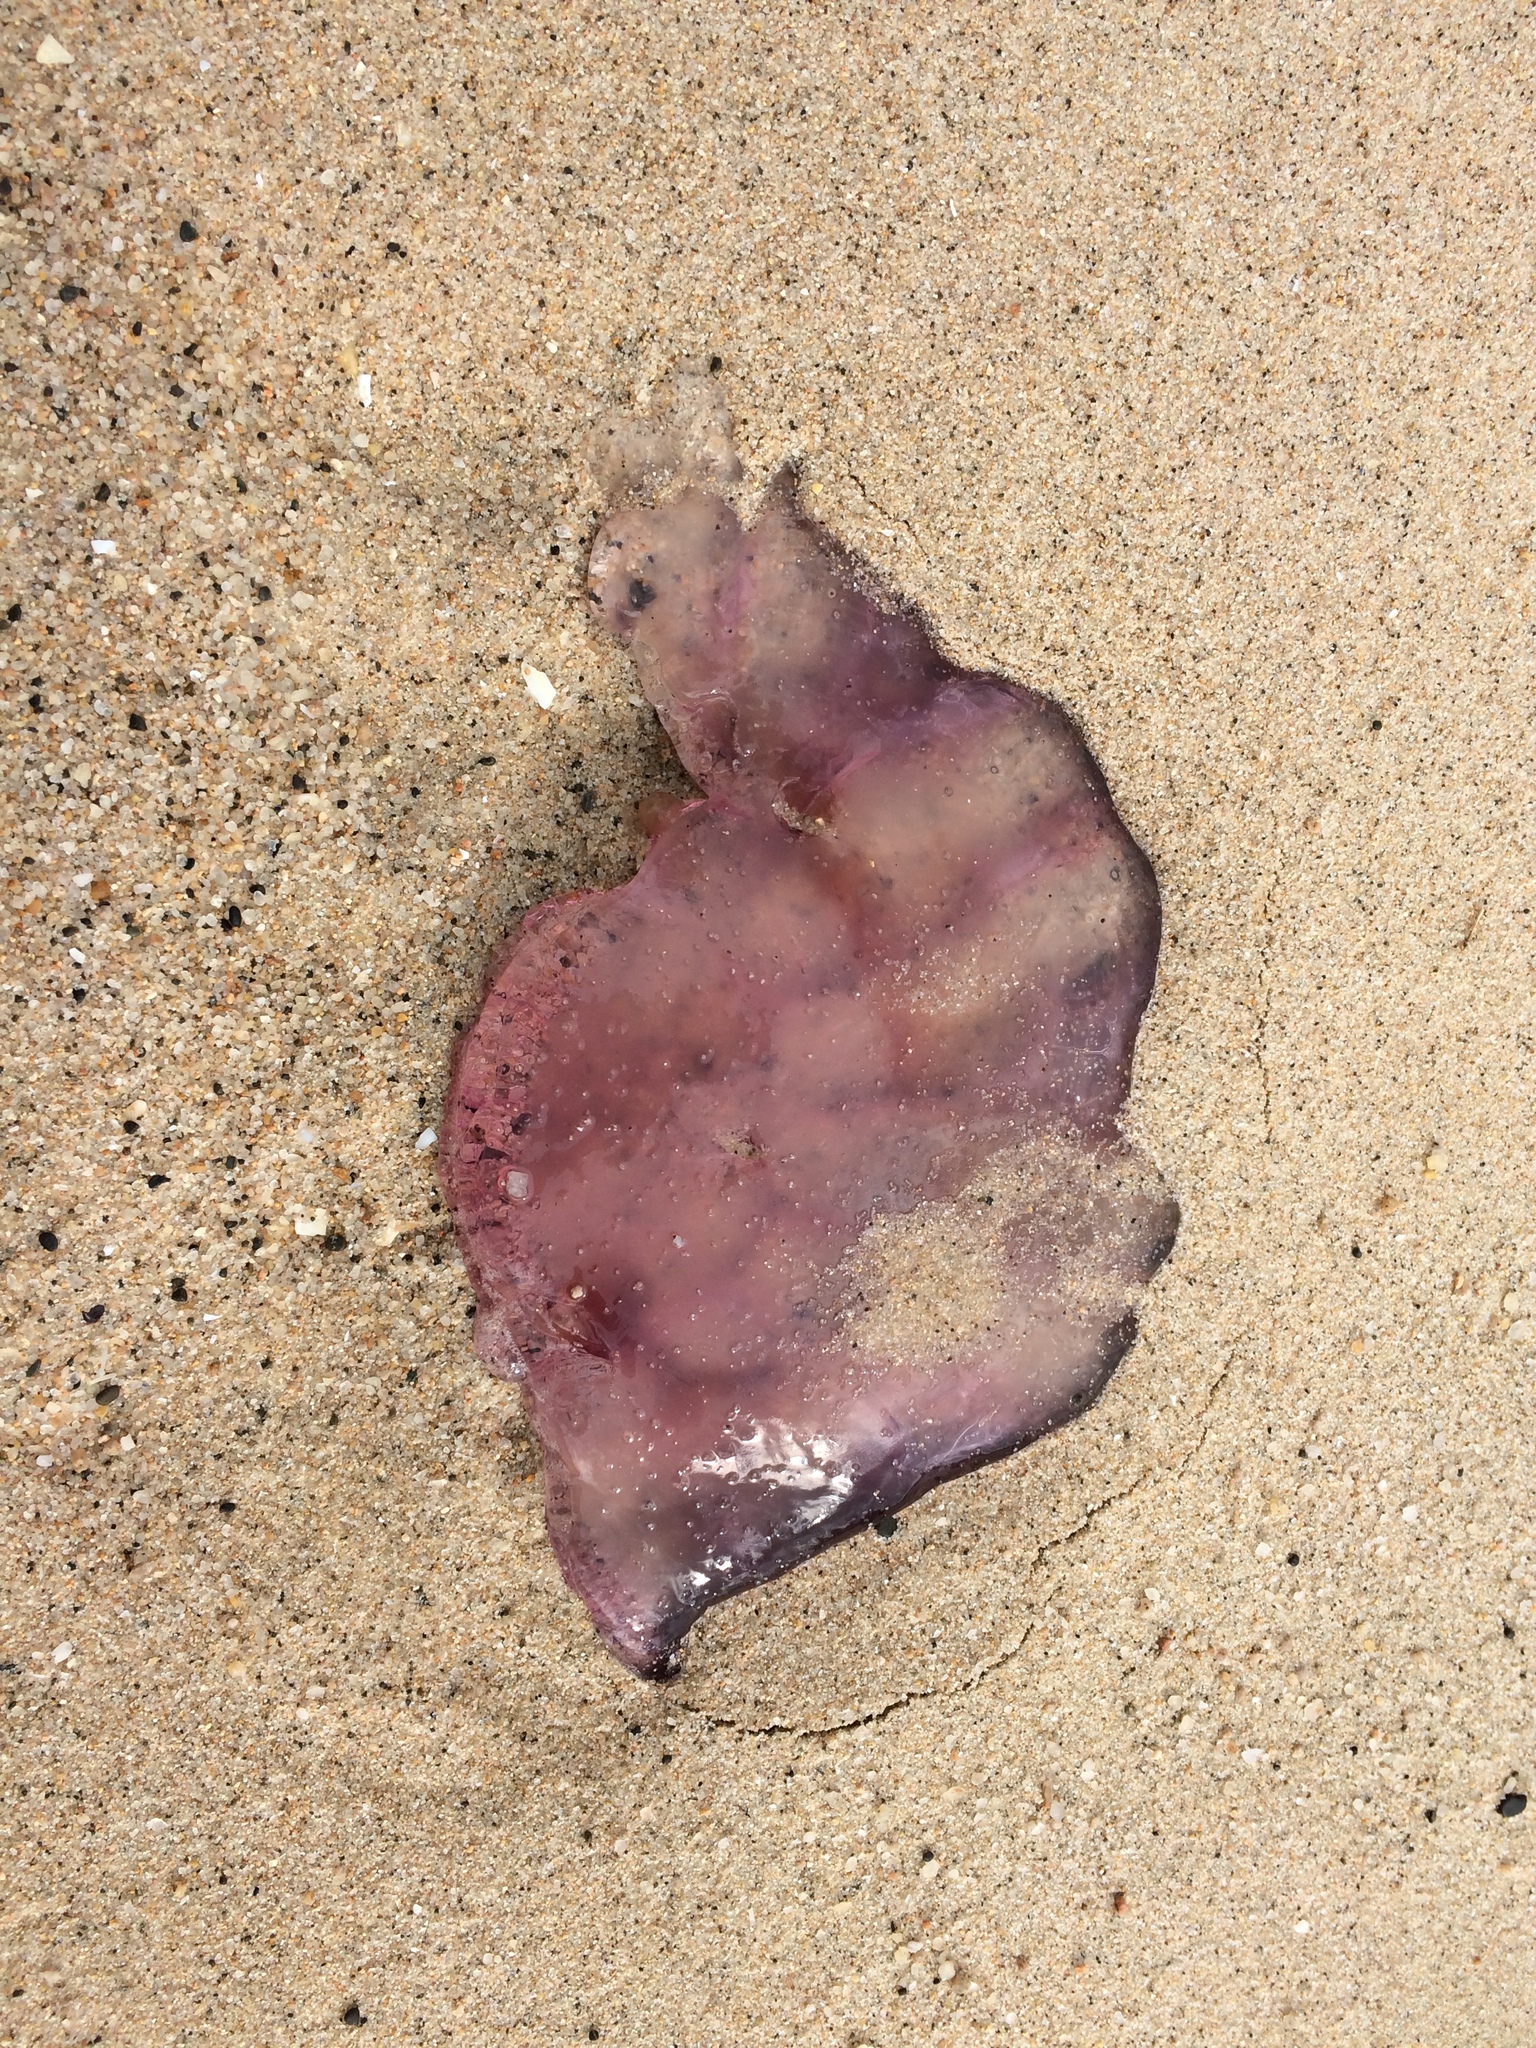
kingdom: Animalia
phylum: Cnidaria
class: Scyphozoa
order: Semaeostomeae
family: Cyaneidae
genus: Cyanea
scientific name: Cyanea
